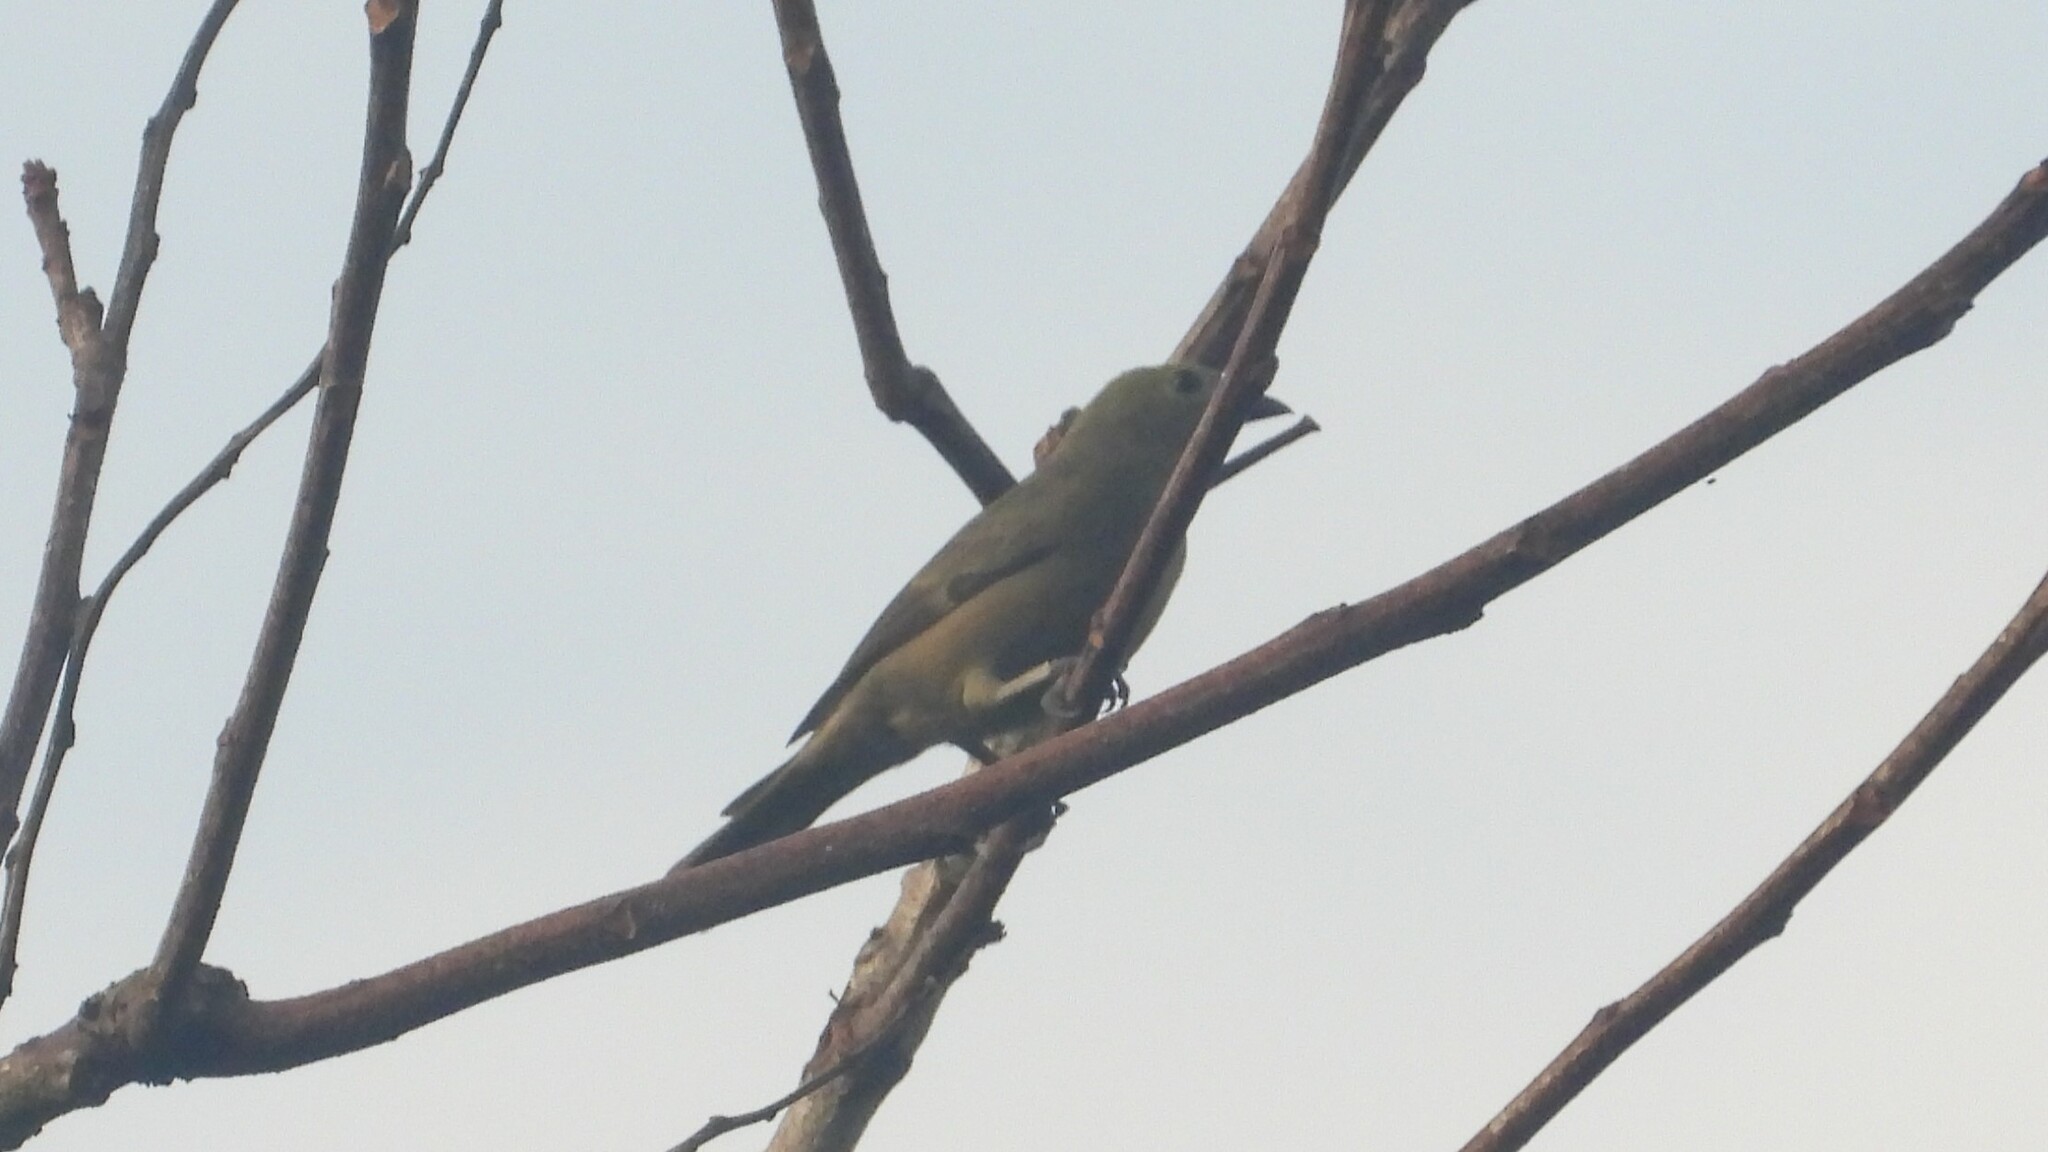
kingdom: Animalia
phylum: Chordata
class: Aves
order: Passeriformes
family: Thraupidae
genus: Thraupis
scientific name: Thraupis palmarum
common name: Palm tanager
